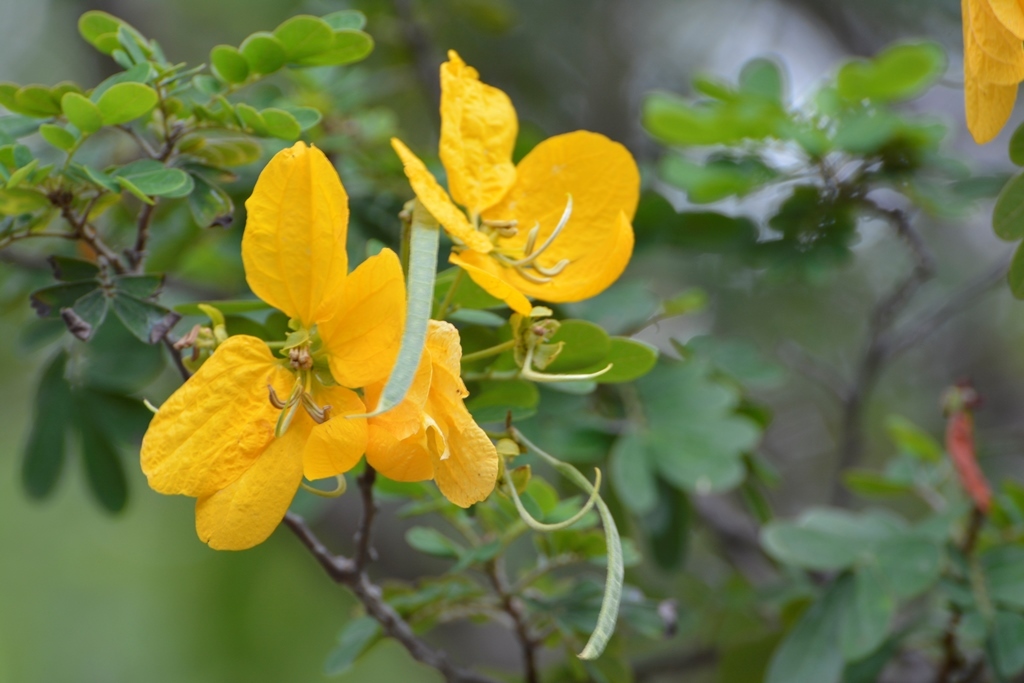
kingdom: Plantae
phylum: Tracheophyta
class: Magnoliopsida
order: Fabales
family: Fabaceae
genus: Senna
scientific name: Senna skinneri
